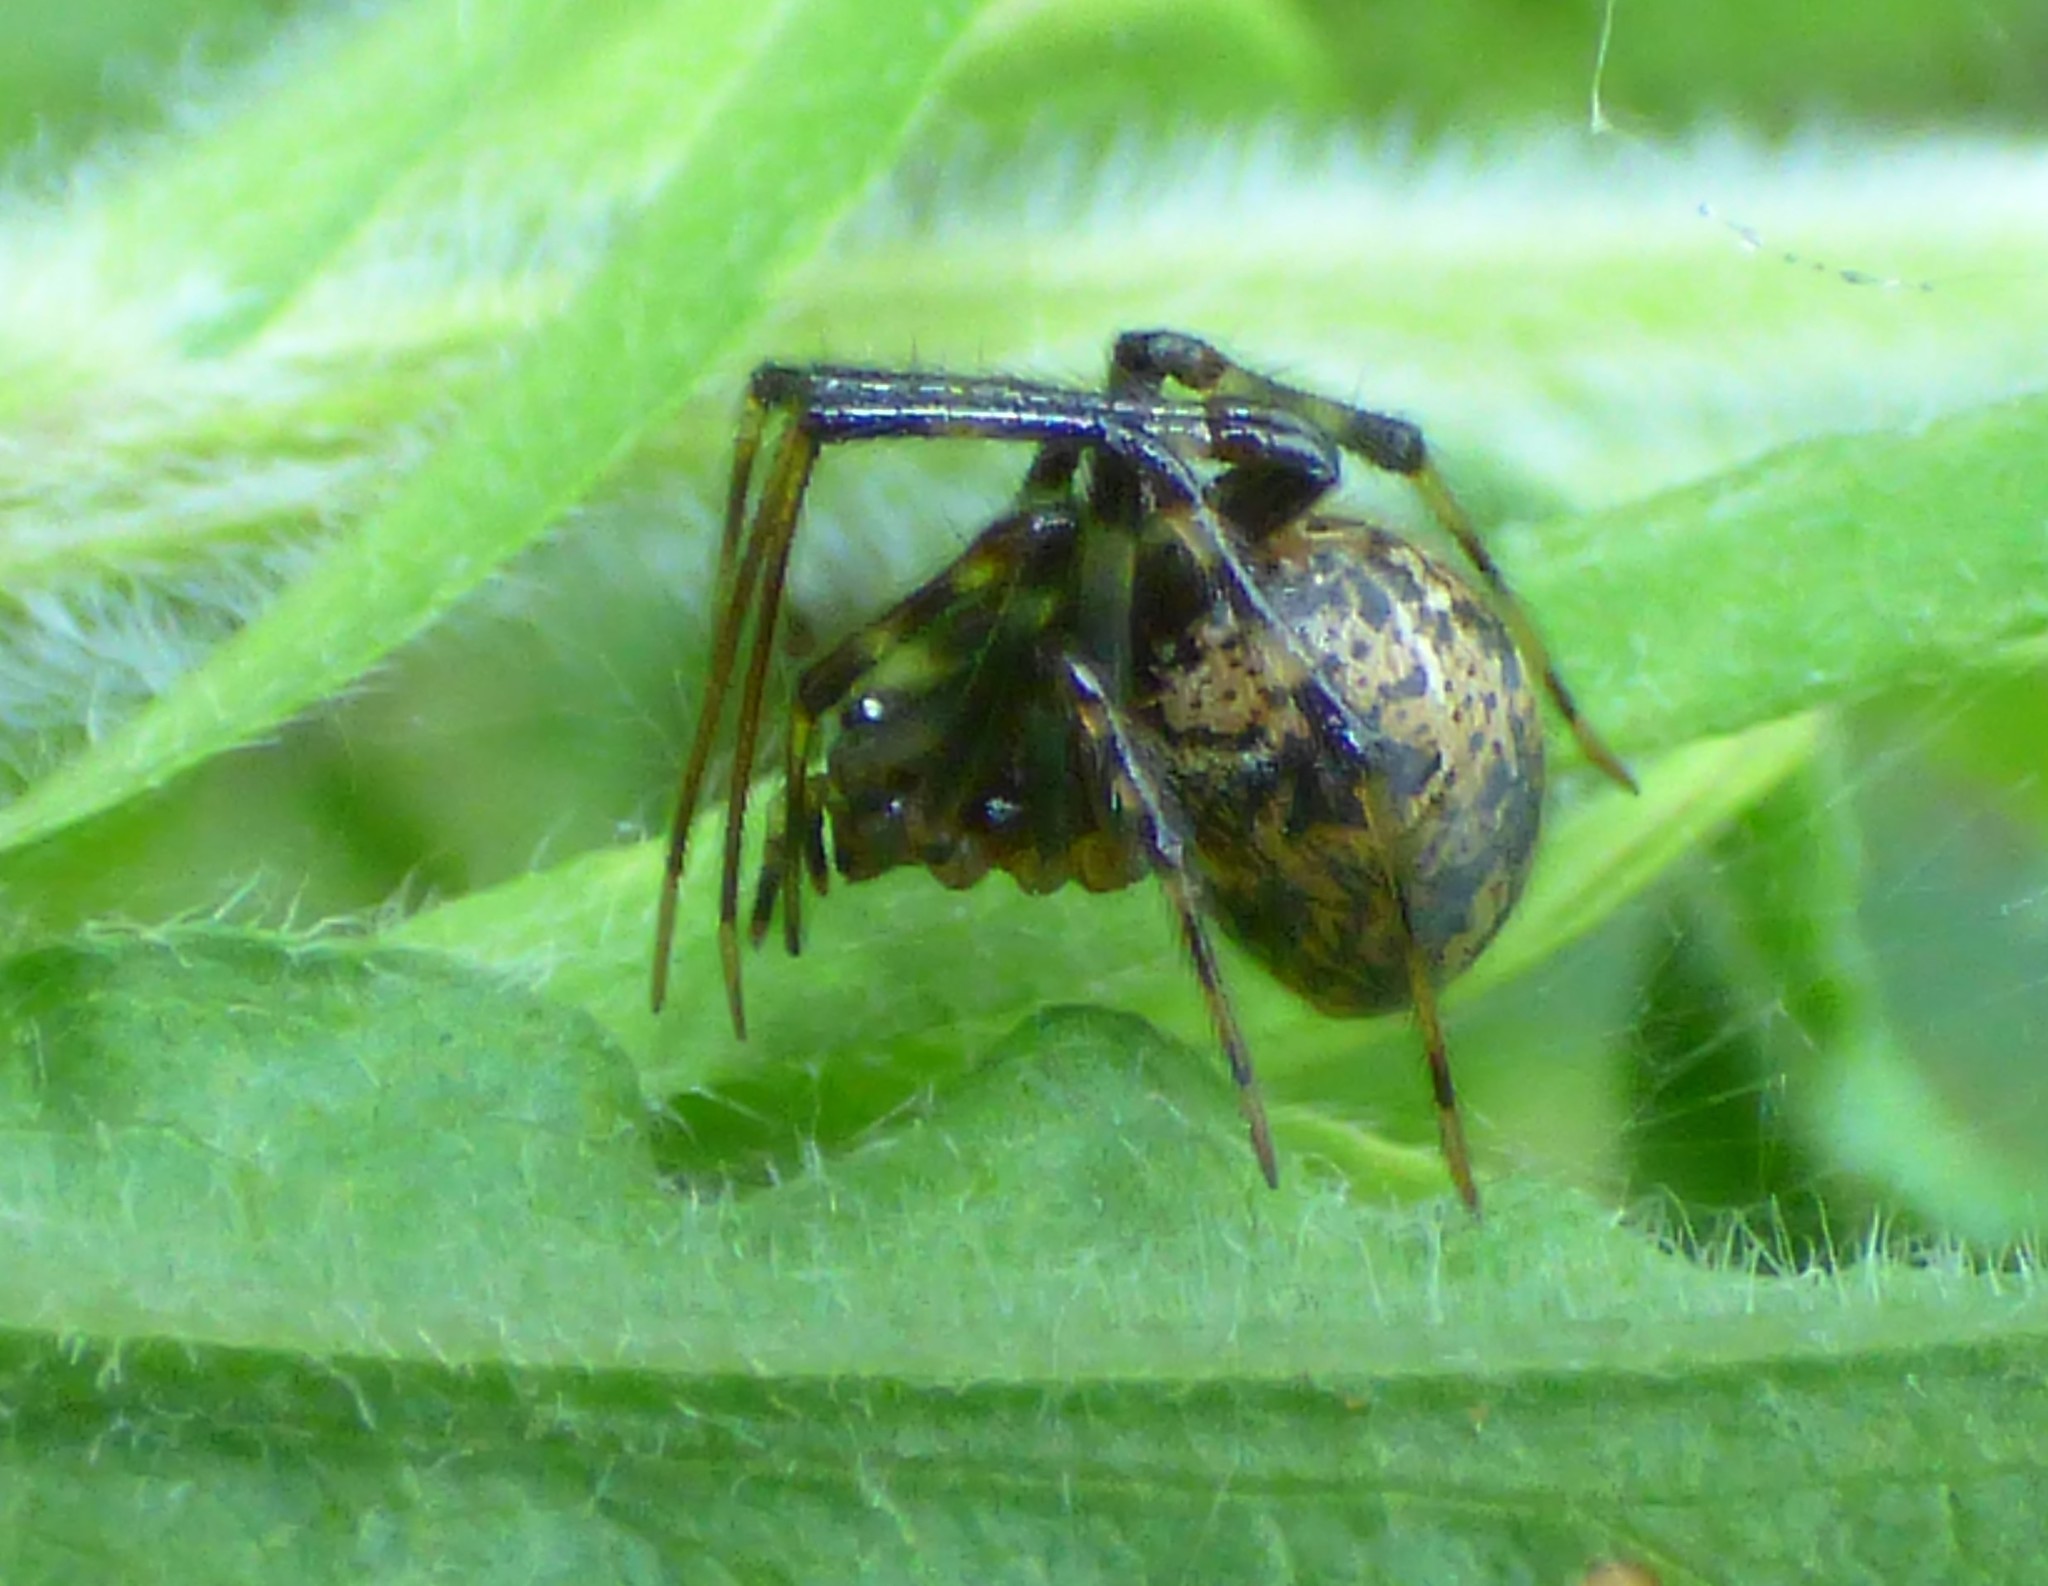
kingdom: Animalia
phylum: Arthropoda
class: Arachnida
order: Araneae
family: Theridiidae
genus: Parasteatoda
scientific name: Parasteatoda tepidariorum
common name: Common house spider
